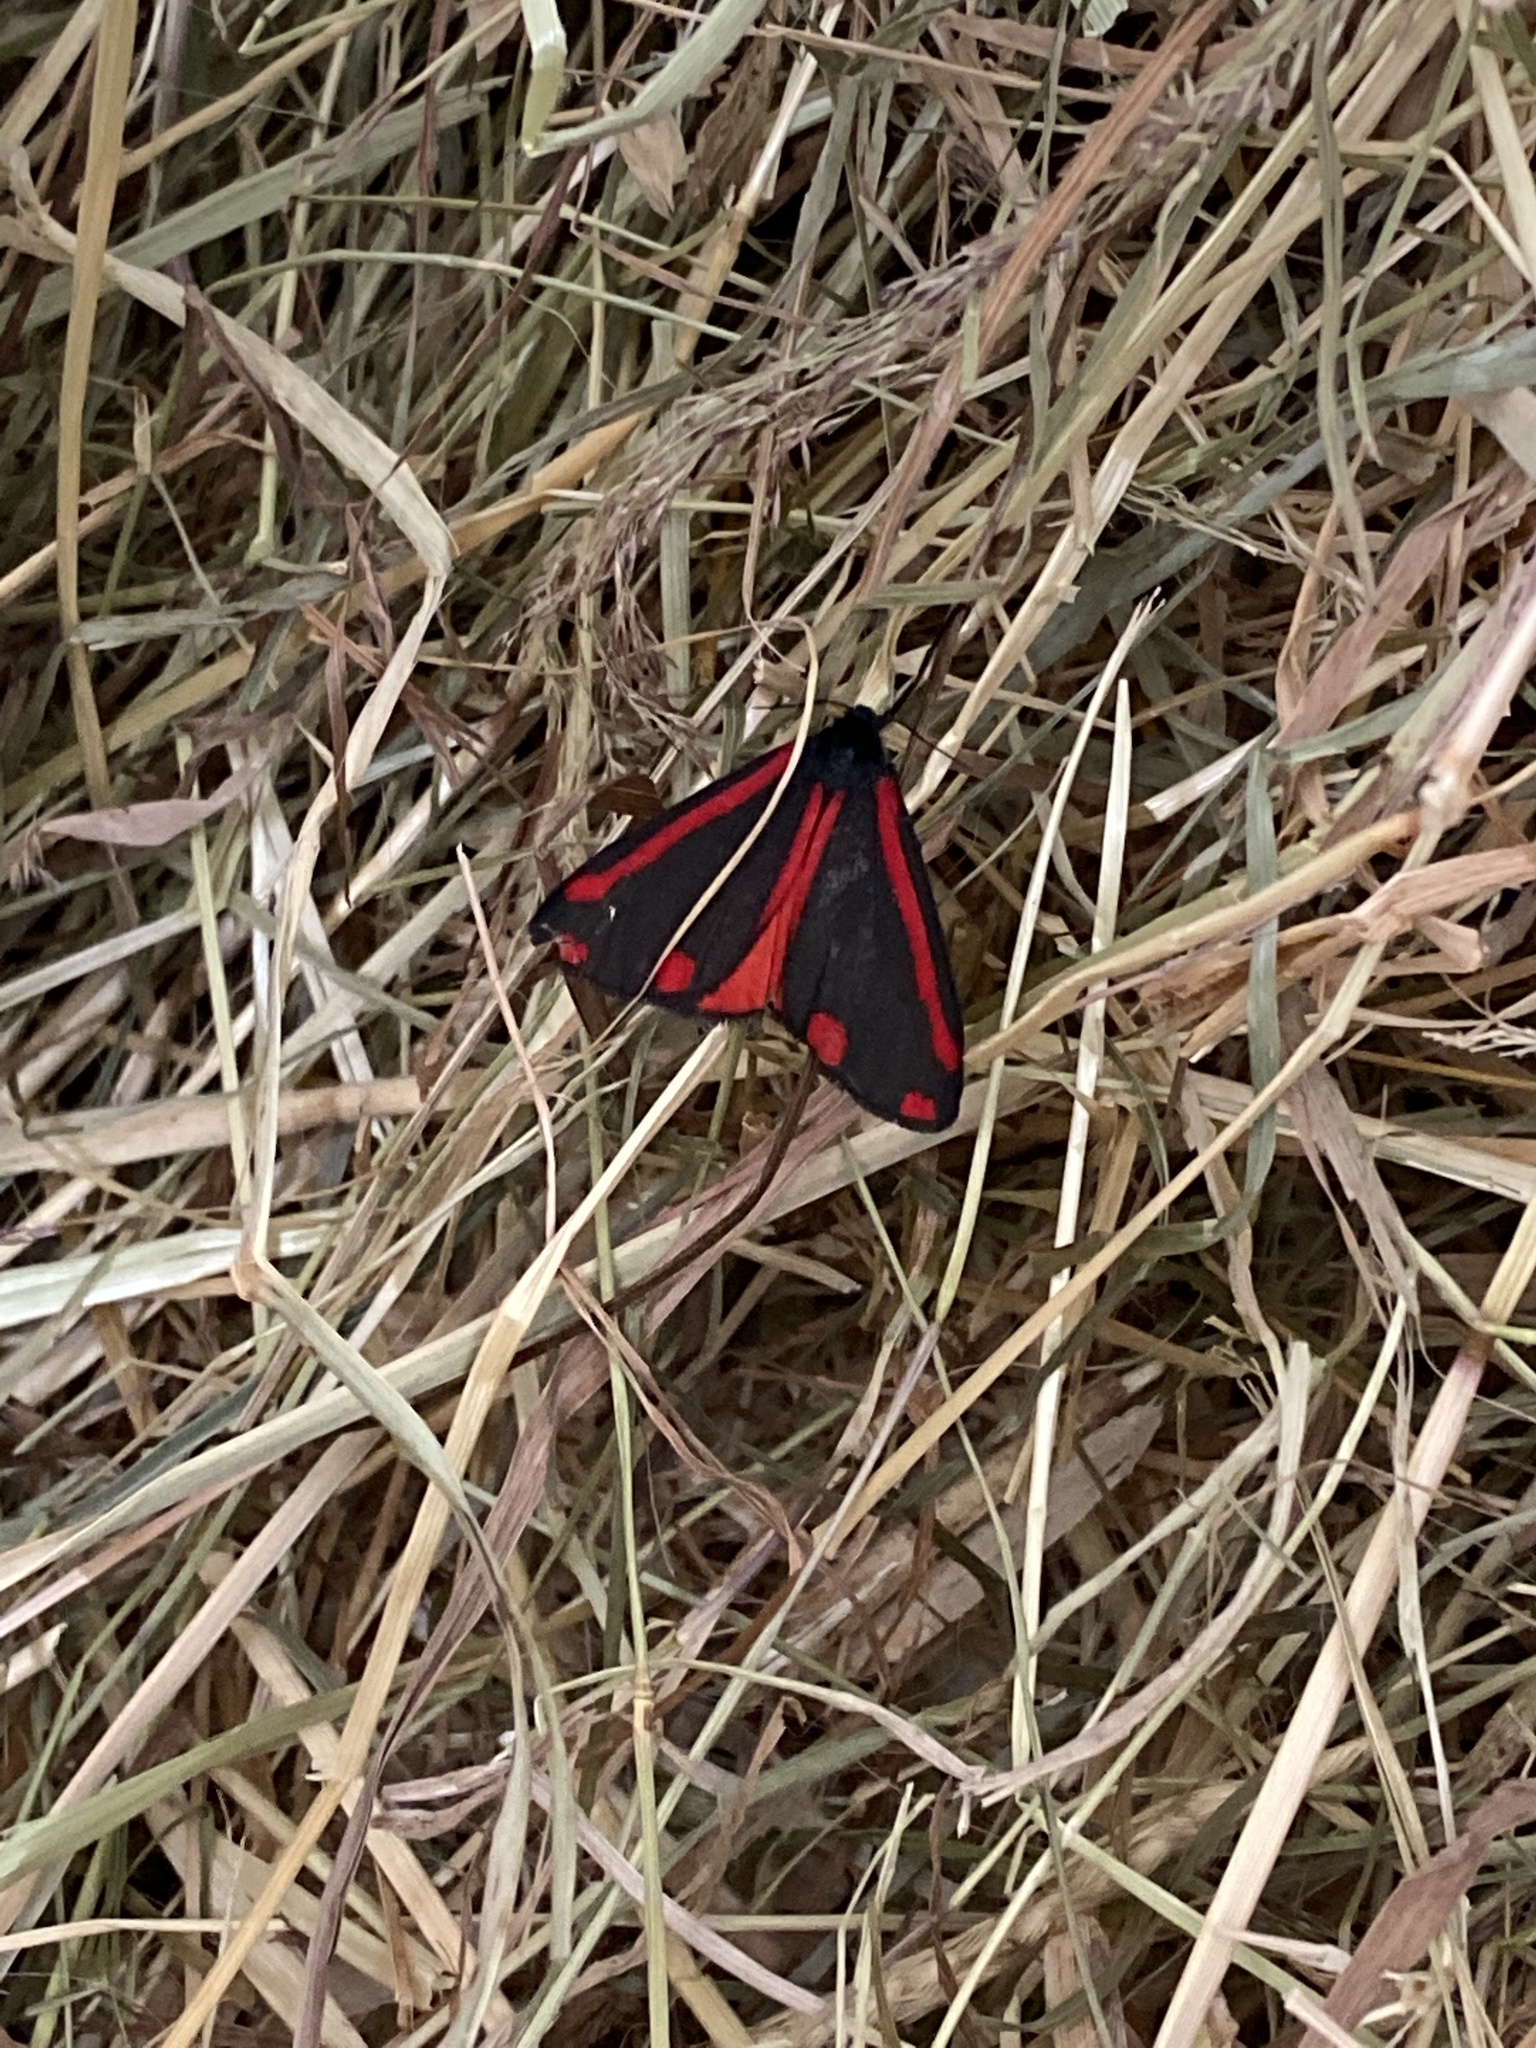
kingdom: Animalia
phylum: Arthropoda
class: Insecta
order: Lepidoptera
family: Erebidae
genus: Tyria
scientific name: Tyria jacobaeae
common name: Cinnabar
